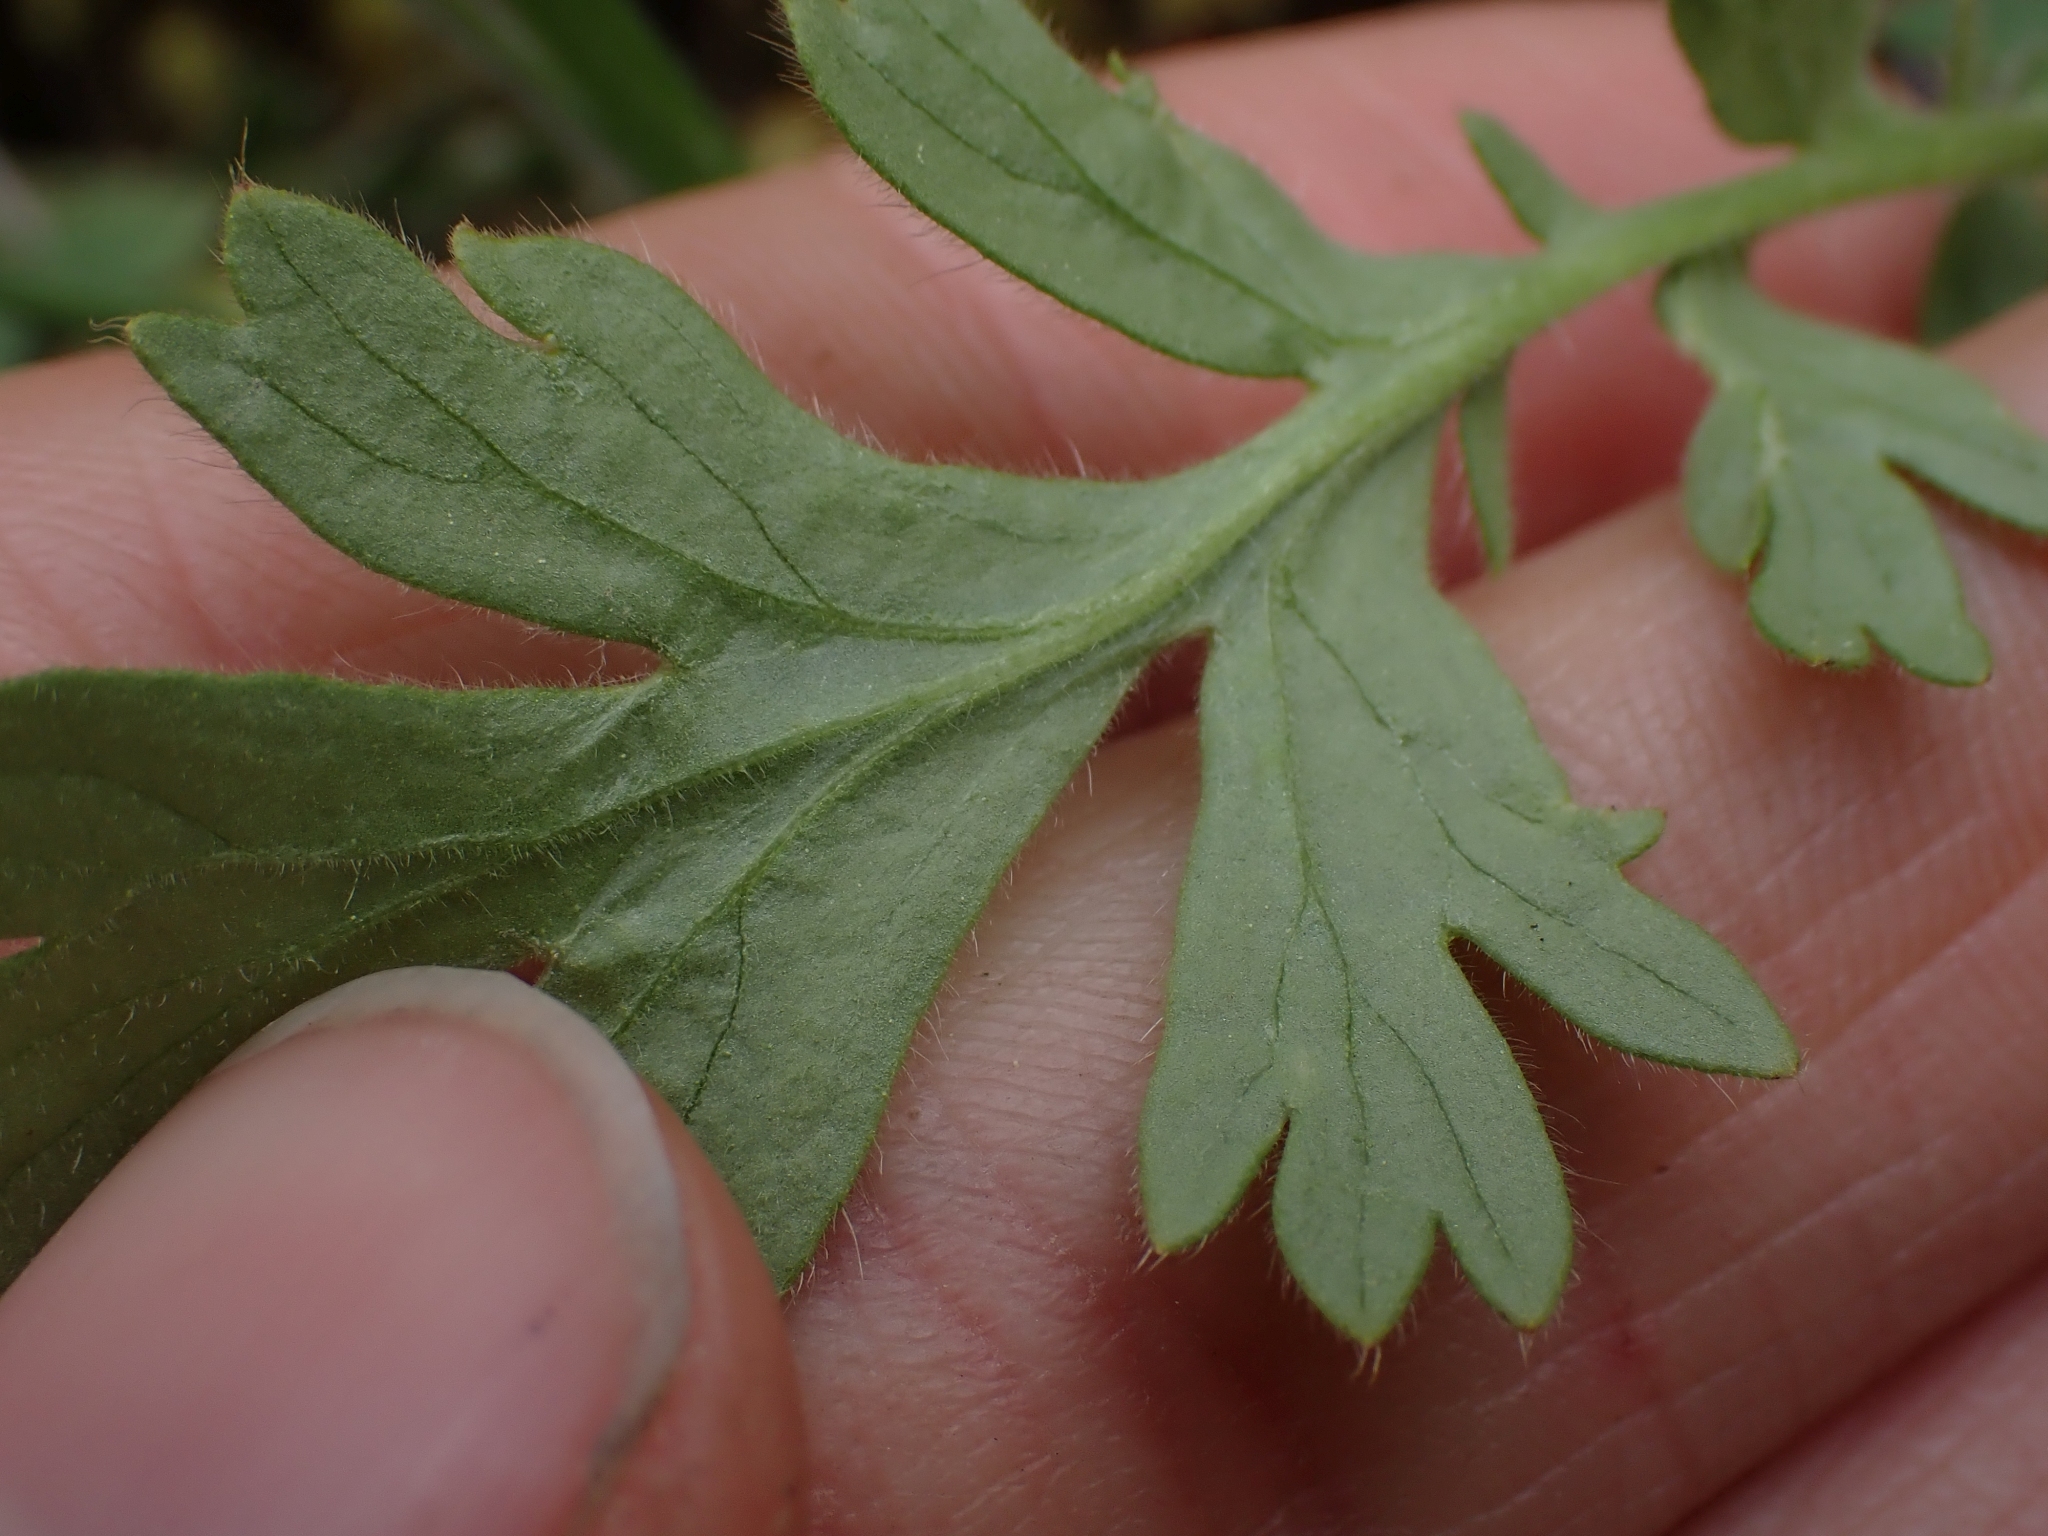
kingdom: Plantae
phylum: Tracheophyta
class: Magnoliopsida
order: Rosales
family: Rosaceae
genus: Geum
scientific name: Geum triflorum
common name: Old man's whiskers
